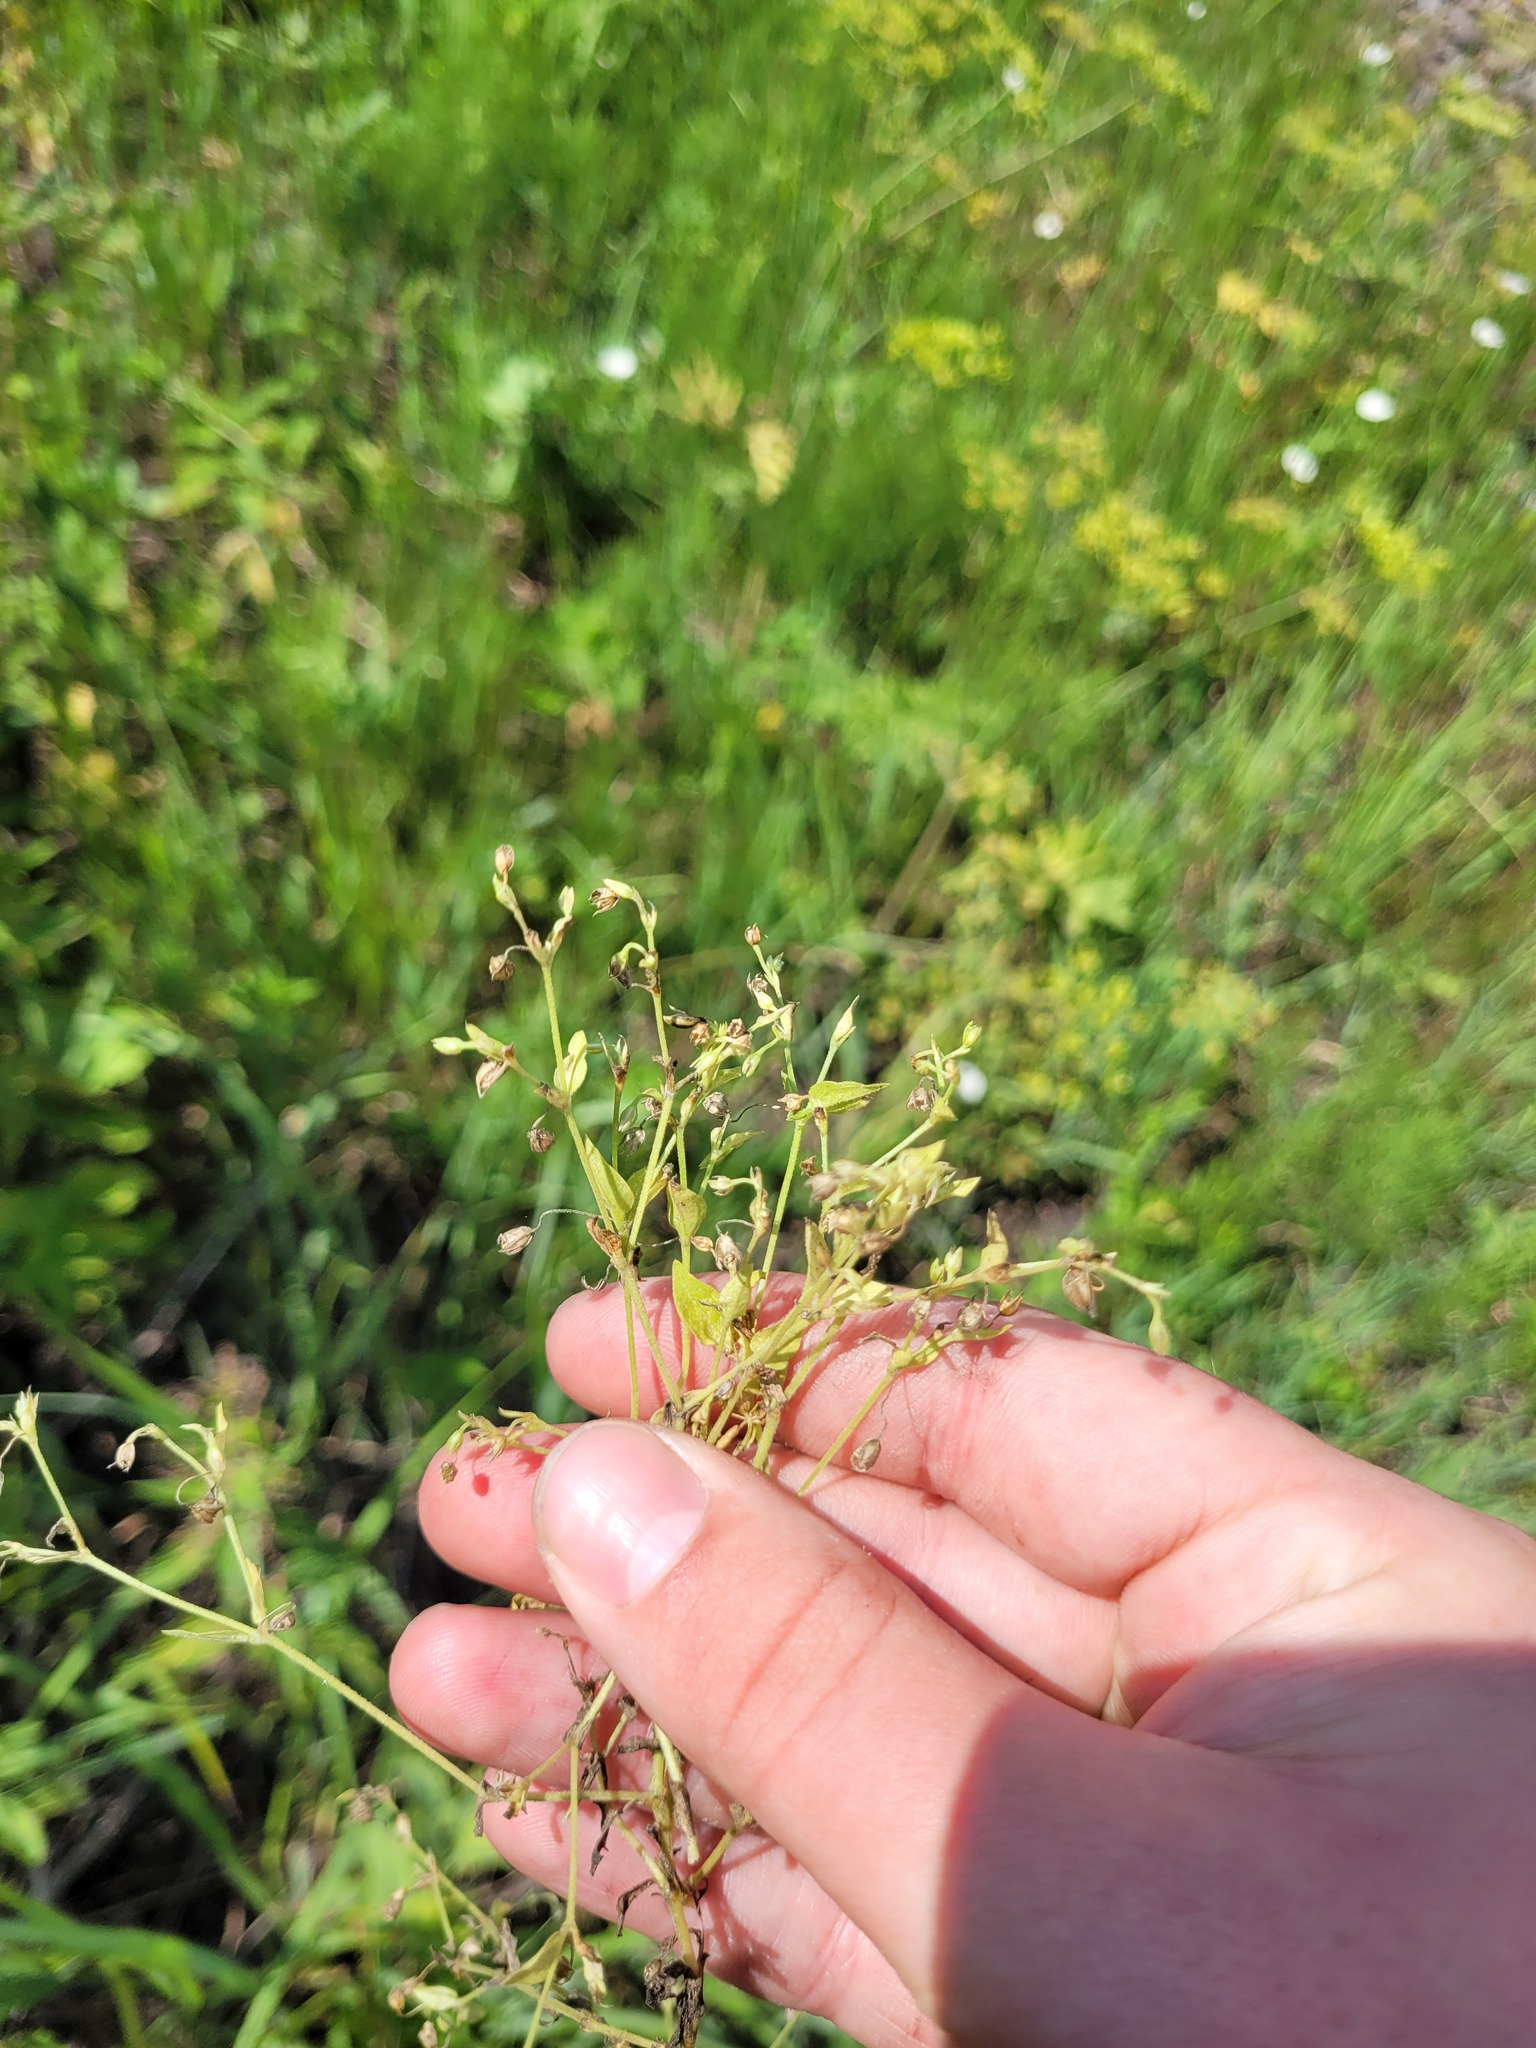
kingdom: Plantae
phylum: Tracheophyta
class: Magnoliopsida
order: Caryophyllales
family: Caryophyllaceae
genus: Moehringia
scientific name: Moehringia trinervia
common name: Three-nerved sandwort
